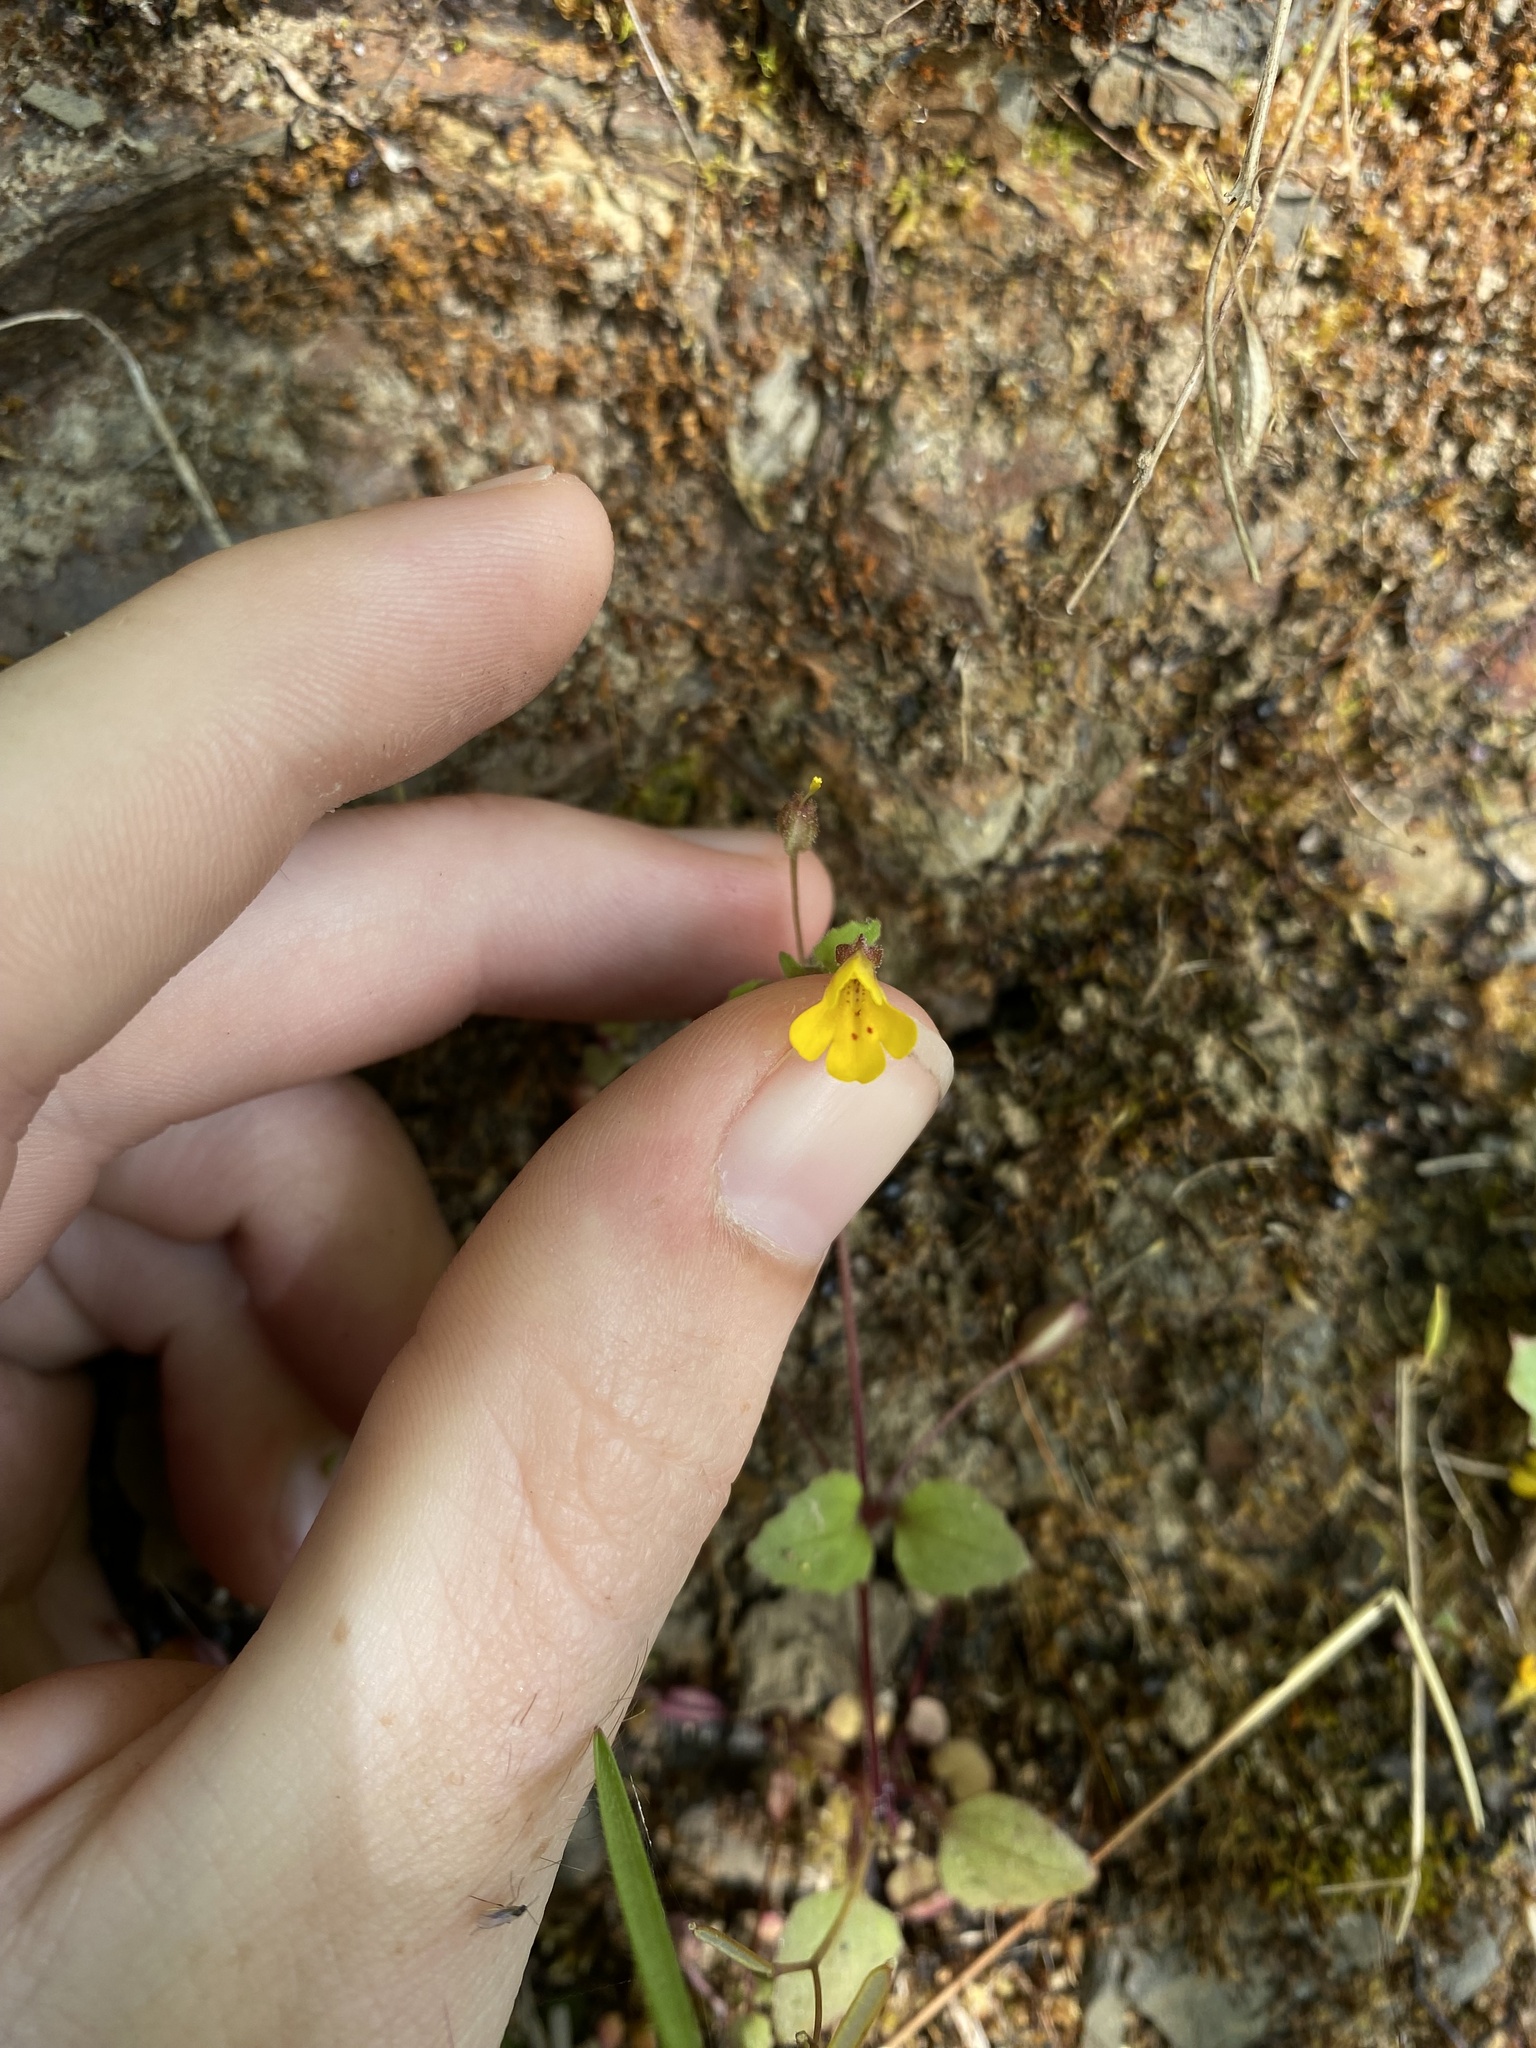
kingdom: Plantae
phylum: Tracheophyta
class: Magnoliopsida
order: Lamiales
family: Phrymaceae
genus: Erythranthe
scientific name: Erythranthe alsinoides
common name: Chickweed monkeyflower
